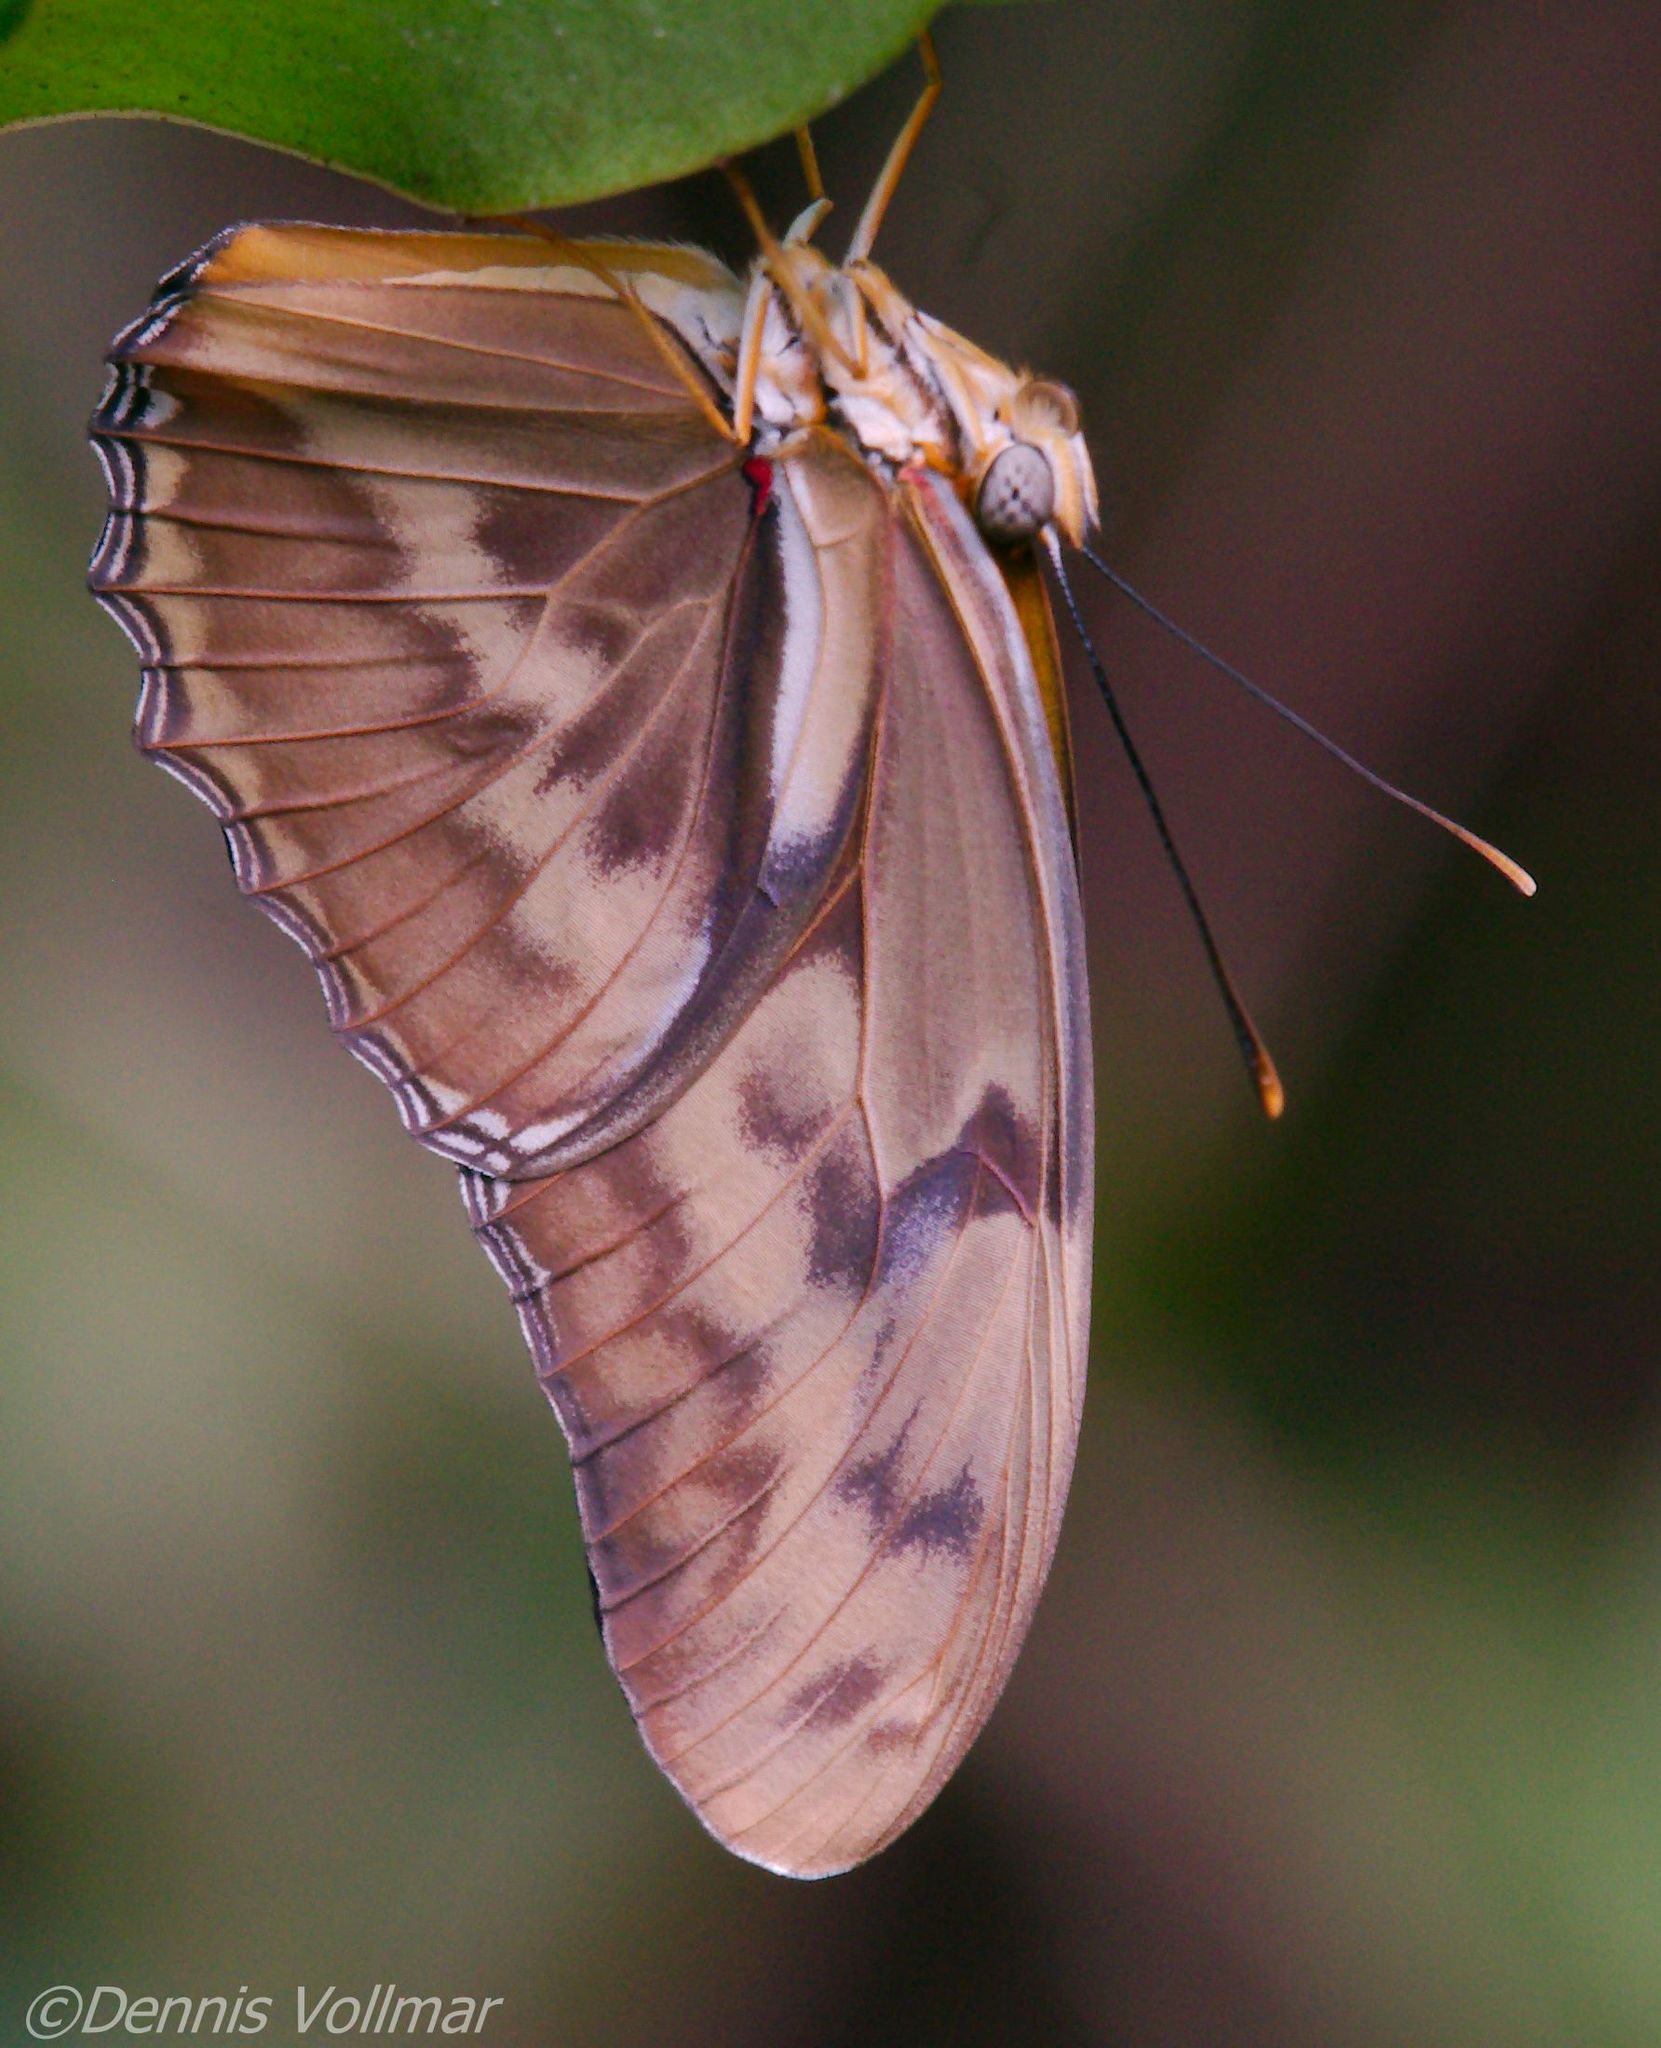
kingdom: Animalia
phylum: Arthropoda
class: Insecta
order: Lepidoptera
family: Nymphalidae
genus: Dryas
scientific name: Dryas iulia
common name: Flambeau
